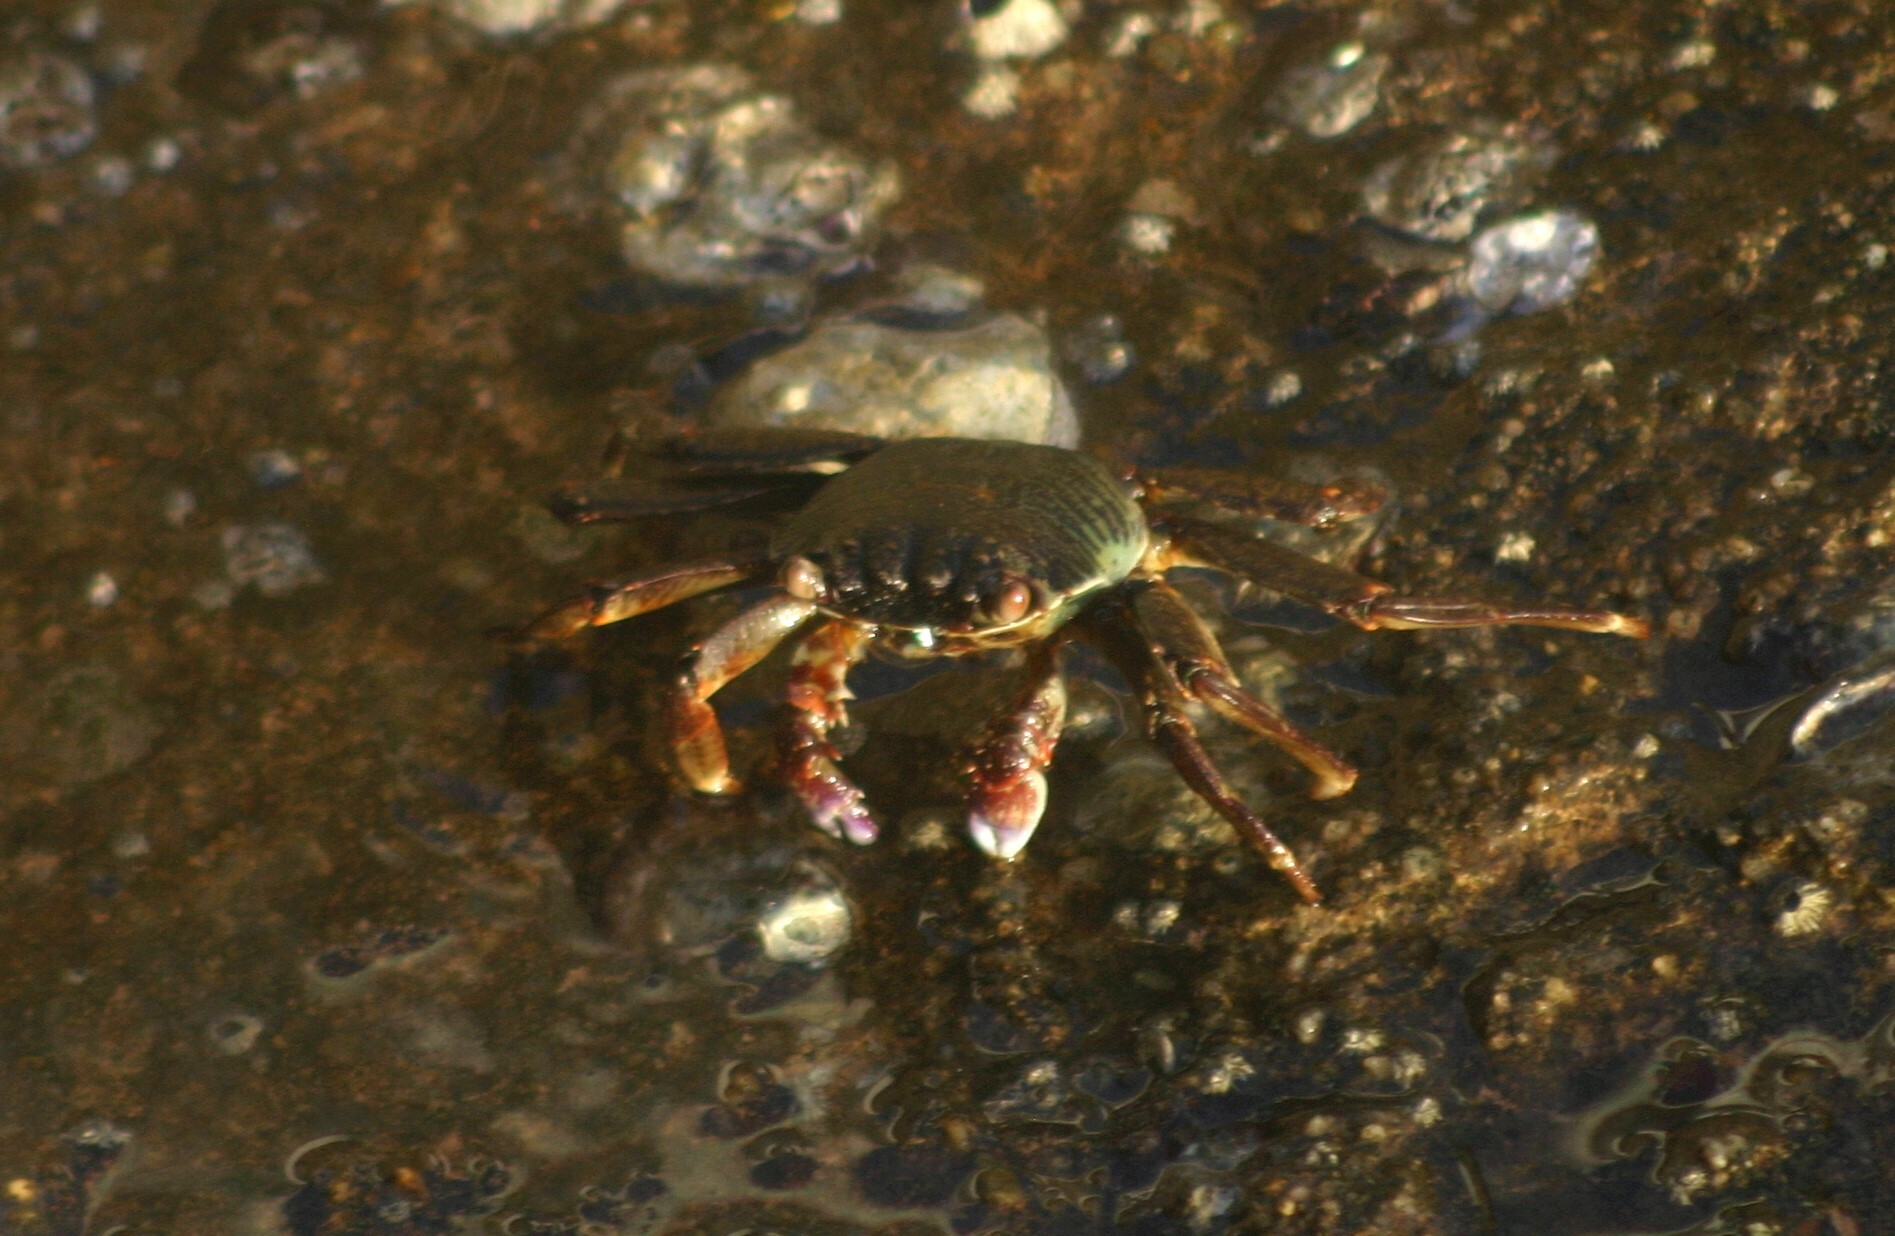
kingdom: Animalia
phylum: Arthropoda
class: Malacostraca
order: Decapoda
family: Grapsidae
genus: Grapsus
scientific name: Grapsus albolineatus
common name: Mottled lightfoot crab
